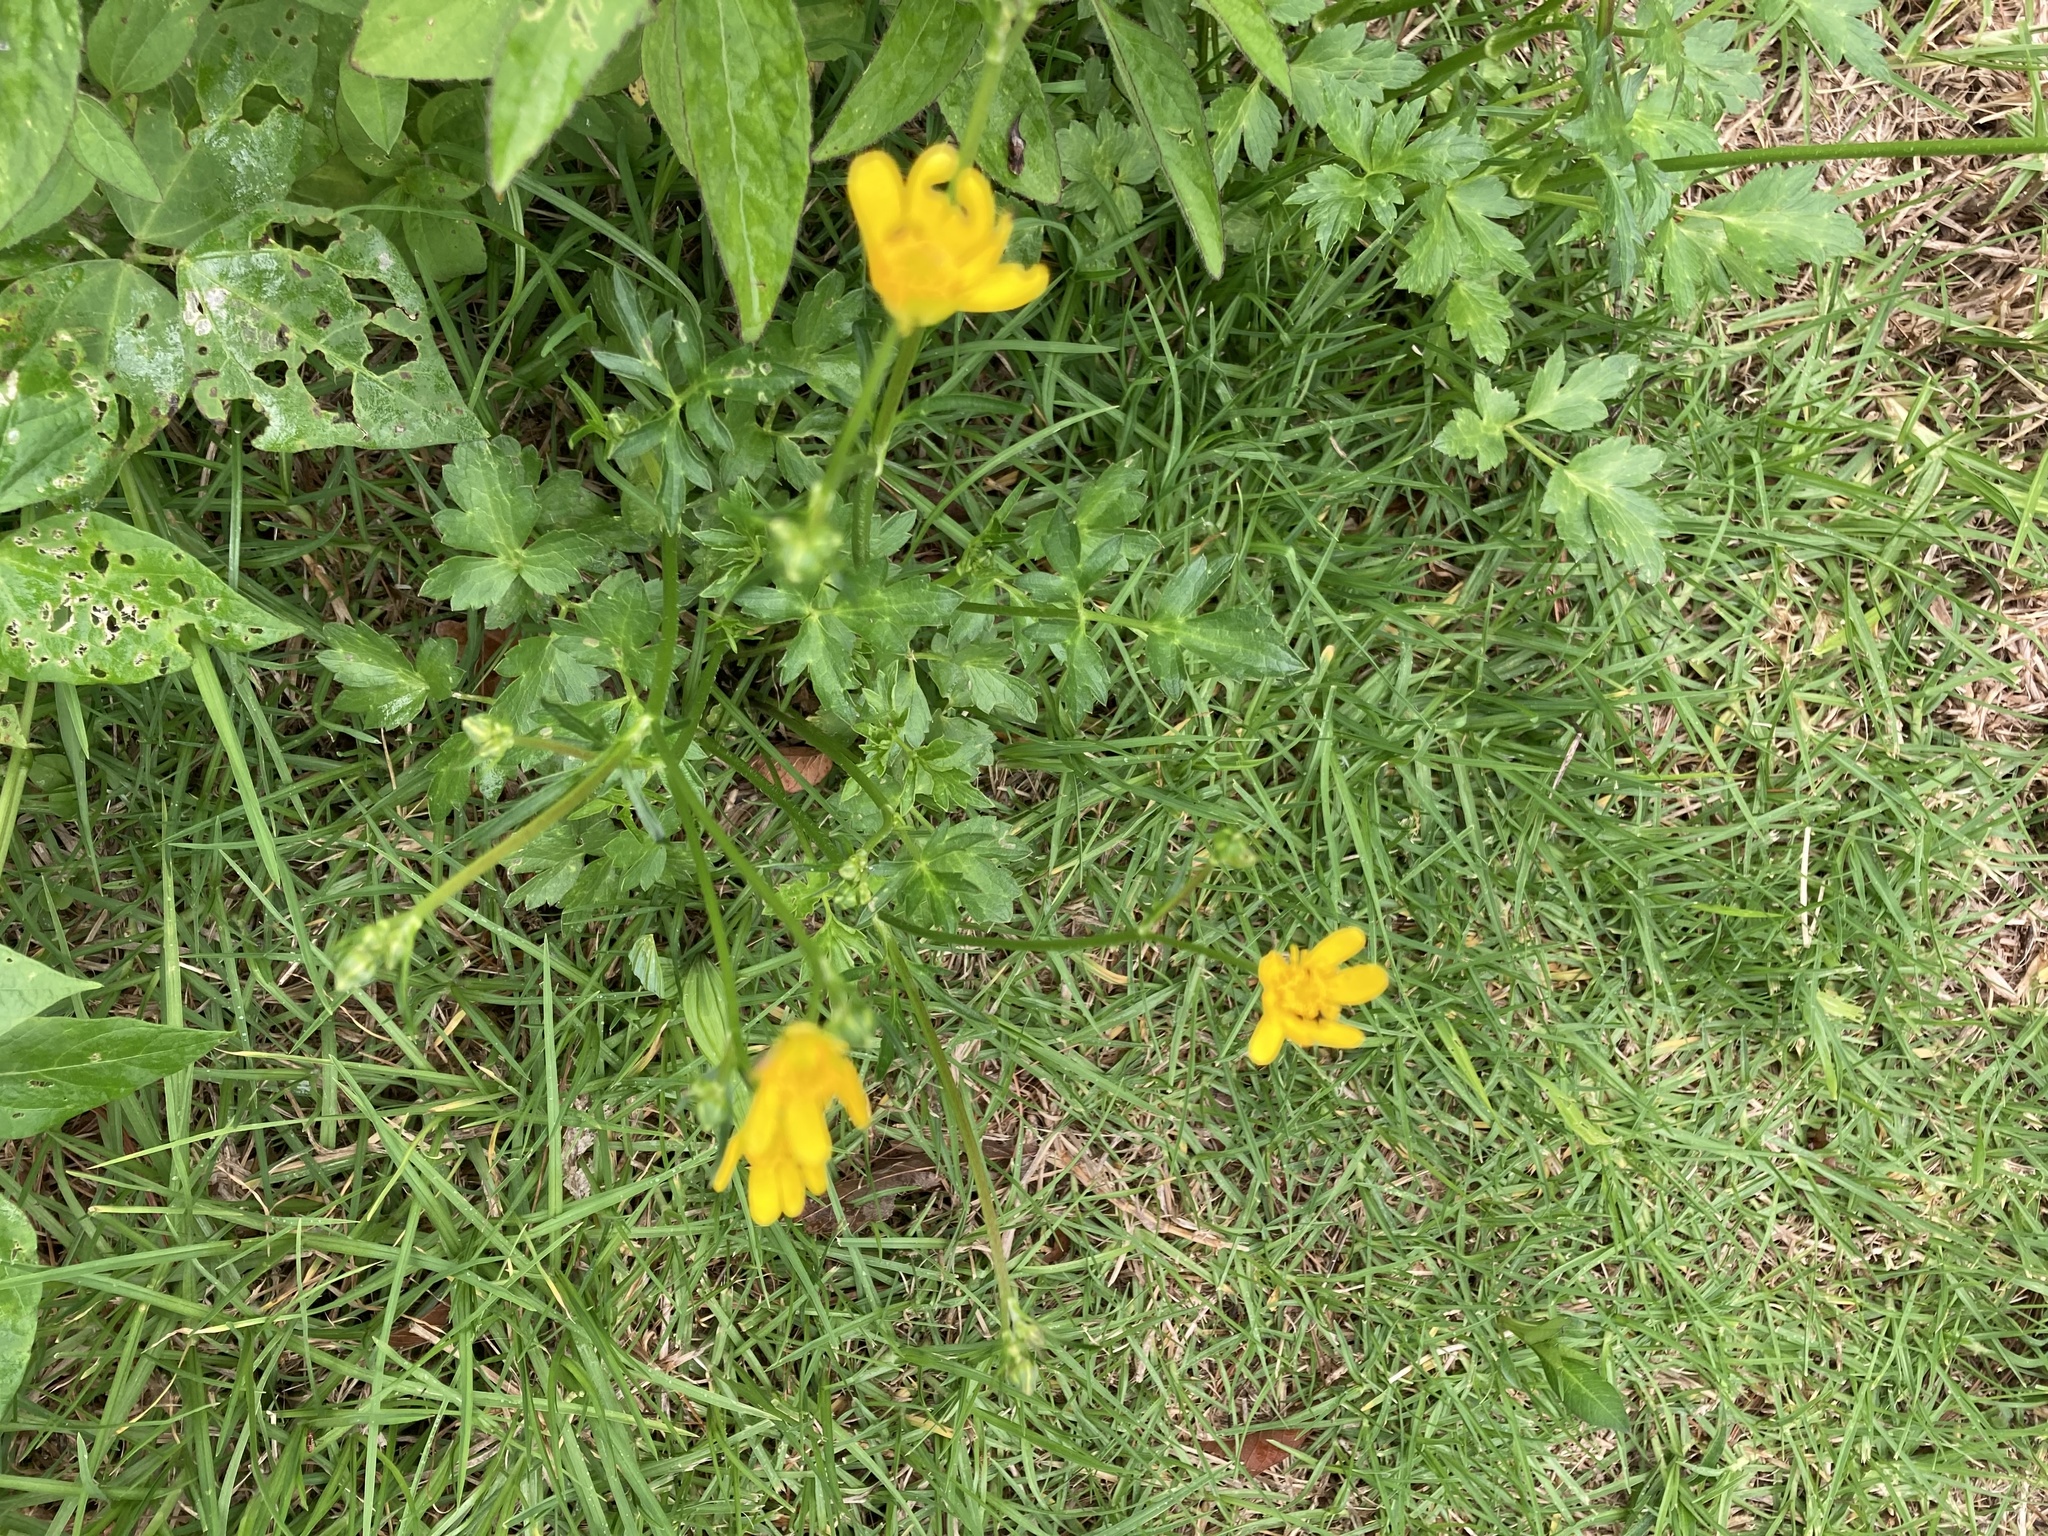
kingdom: Plantae
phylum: Tracheophyta
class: Magnoliopsida
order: Ranunculales
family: Ranunculaceae
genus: Ranunculus
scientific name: Ranunculus petiolaris
